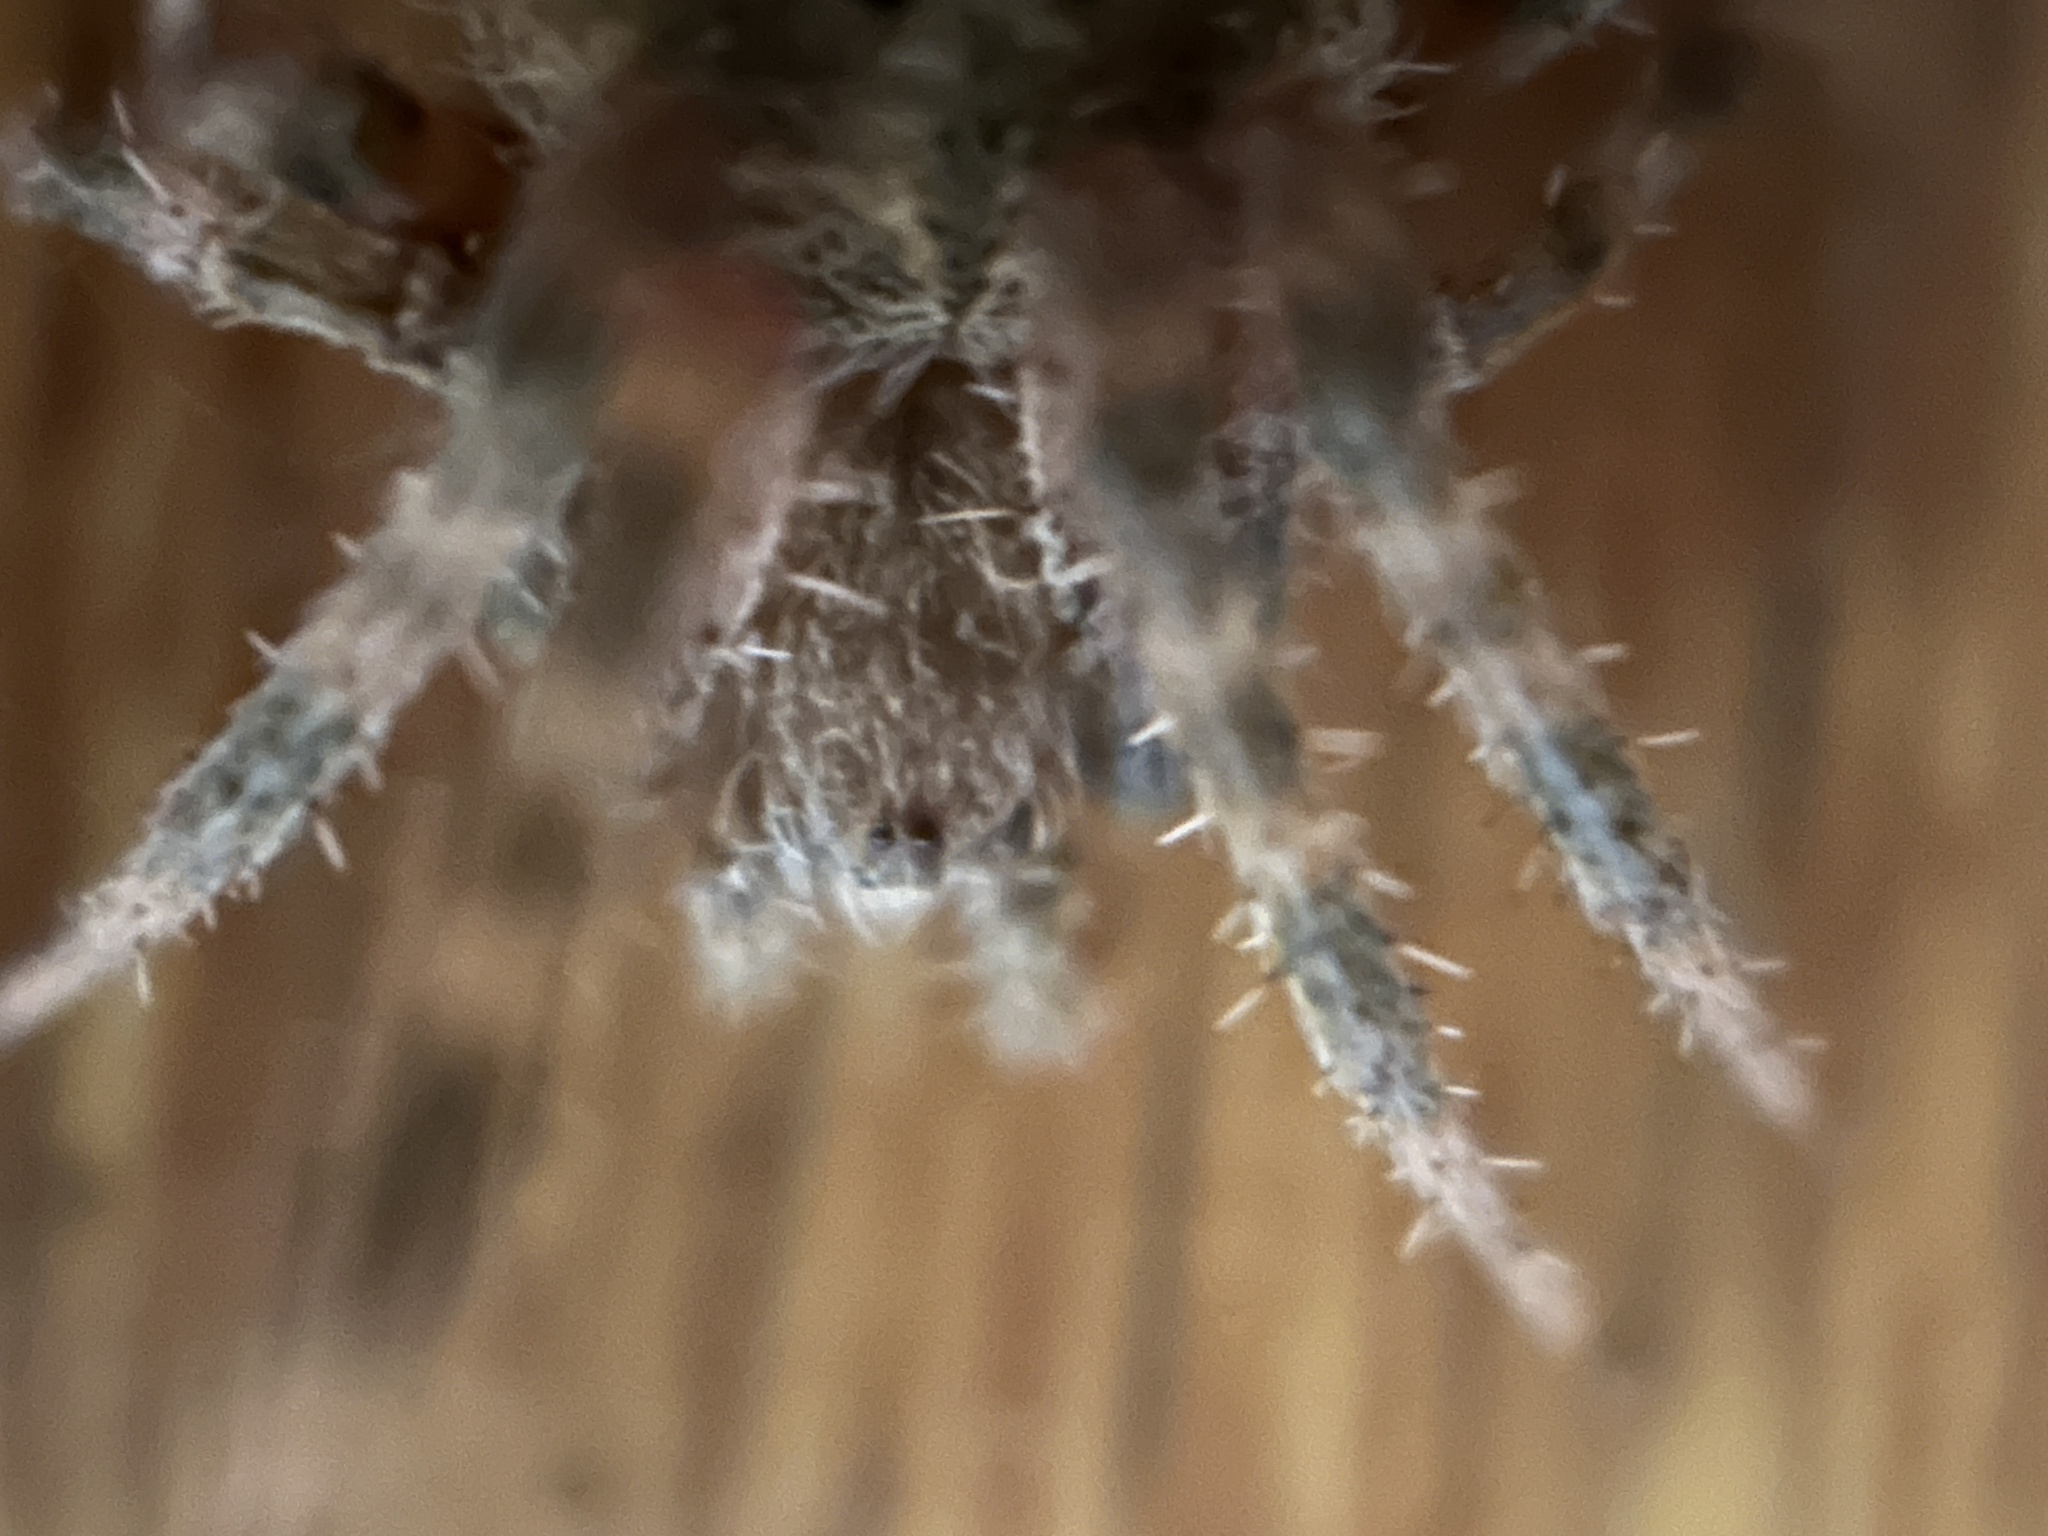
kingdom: Animalia
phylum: Arthropoda
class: Arachnida
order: Araneae
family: Araneidae
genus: Neoscona
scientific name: Neoscona crucifera
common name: Spotted orbweaver
